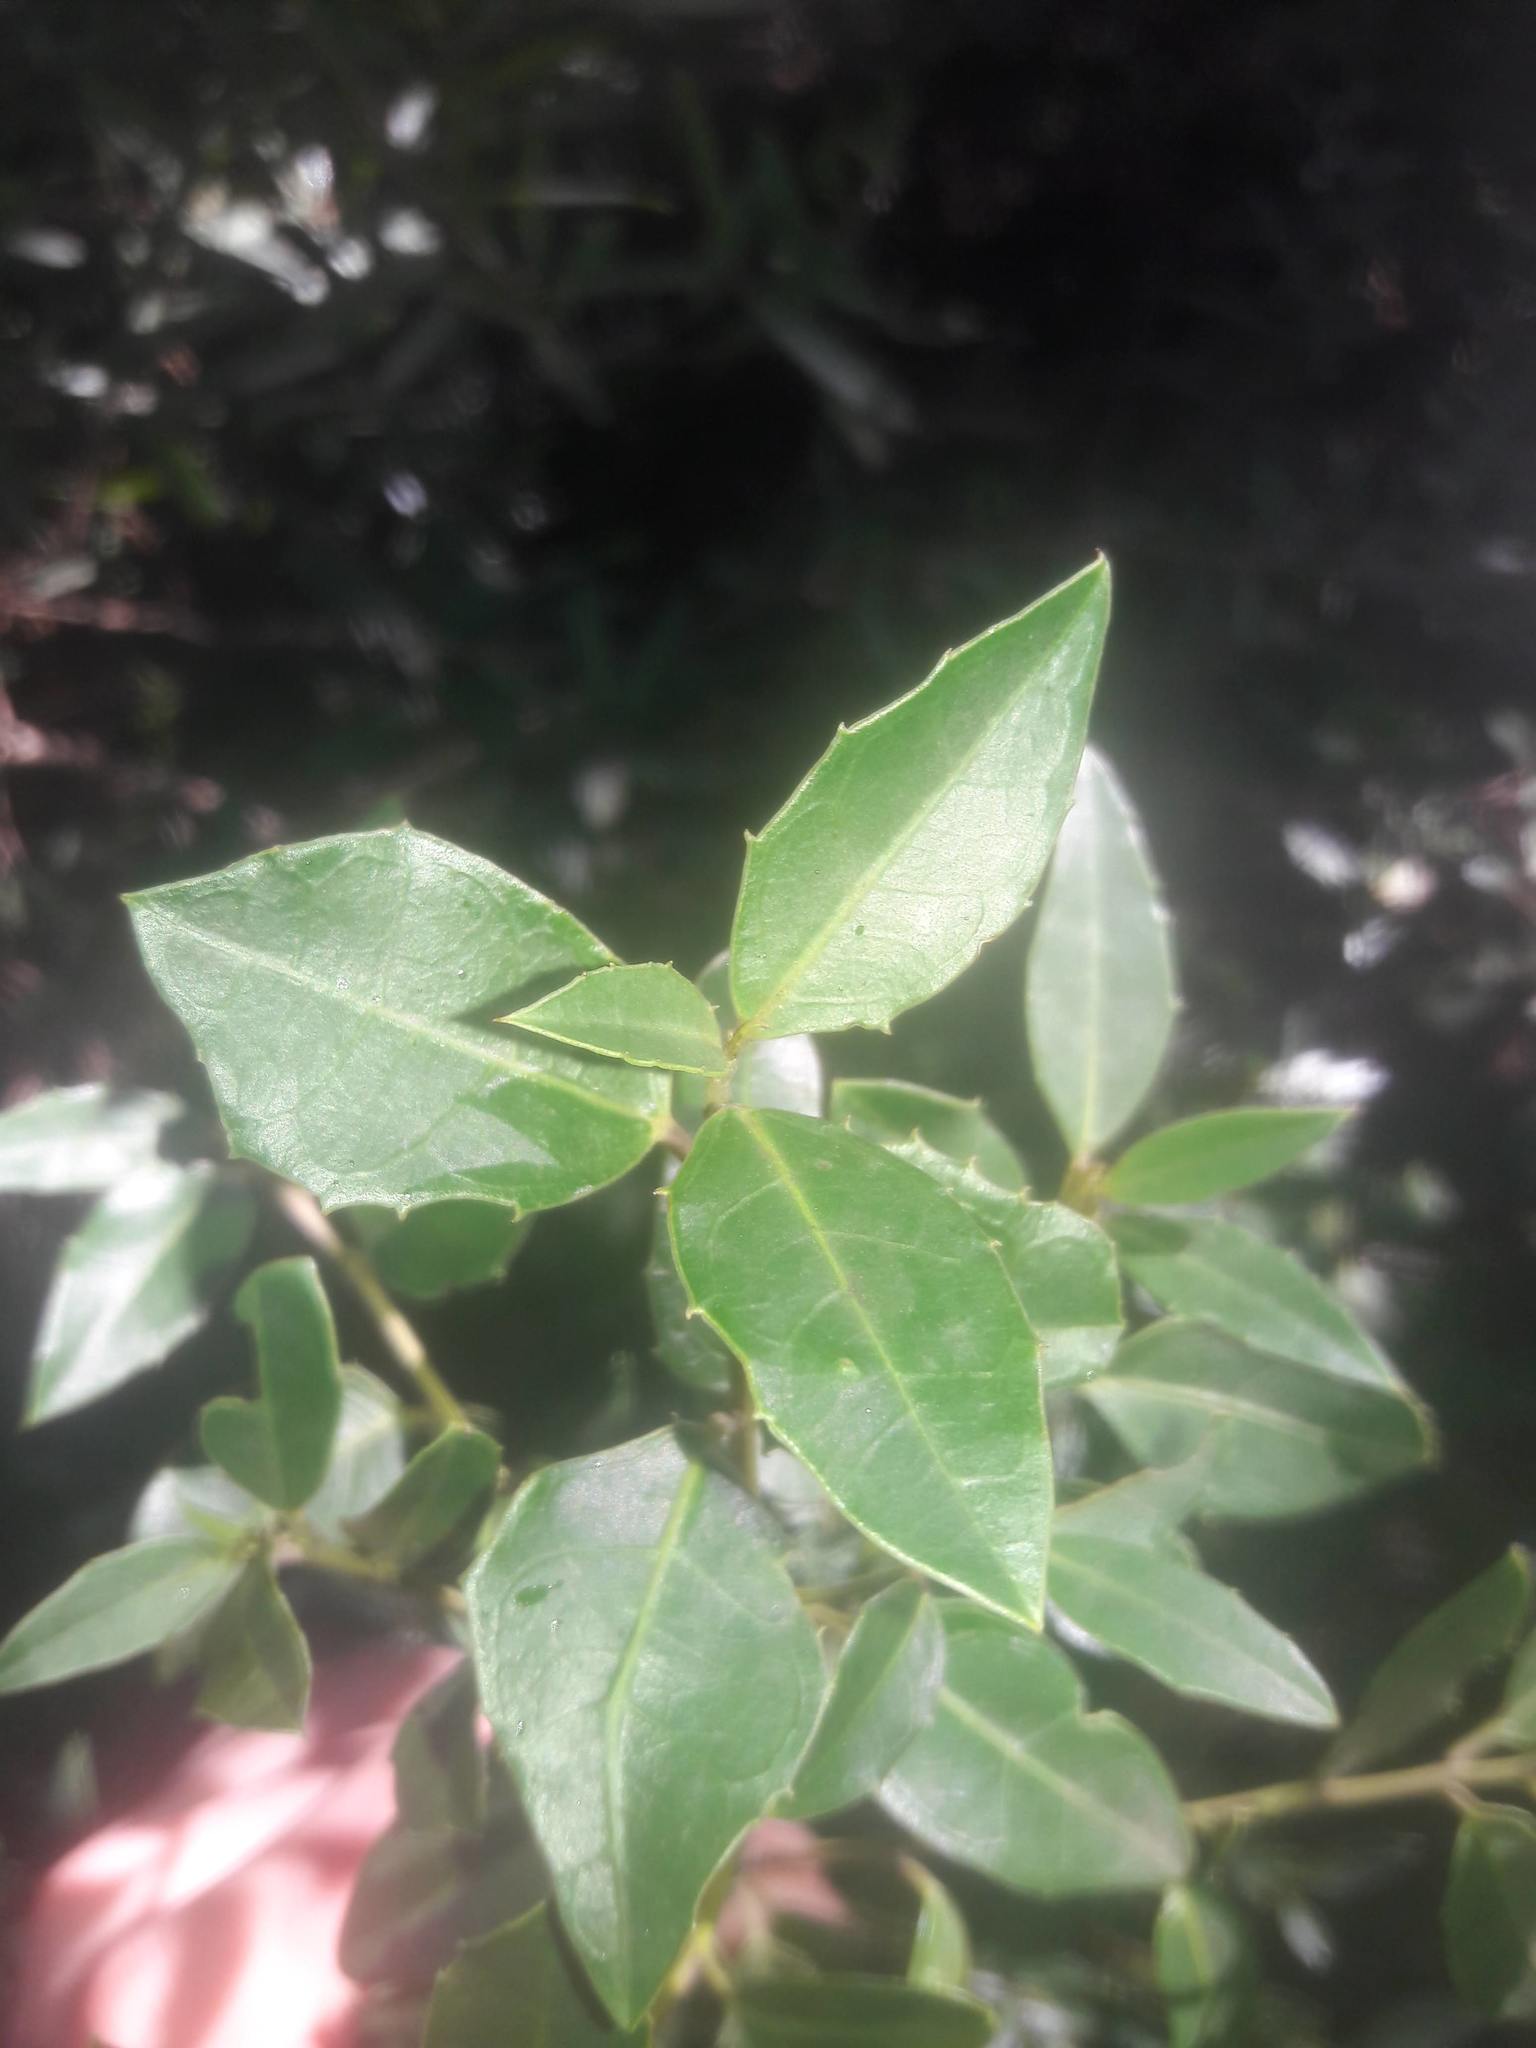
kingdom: Plantae
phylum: Tracheophyta
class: Magnoliopsida
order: Rosales
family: Rhamnaceae
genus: Rhamnus
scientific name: Rhamnus alaternus
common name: Mediterranean buckthorn
